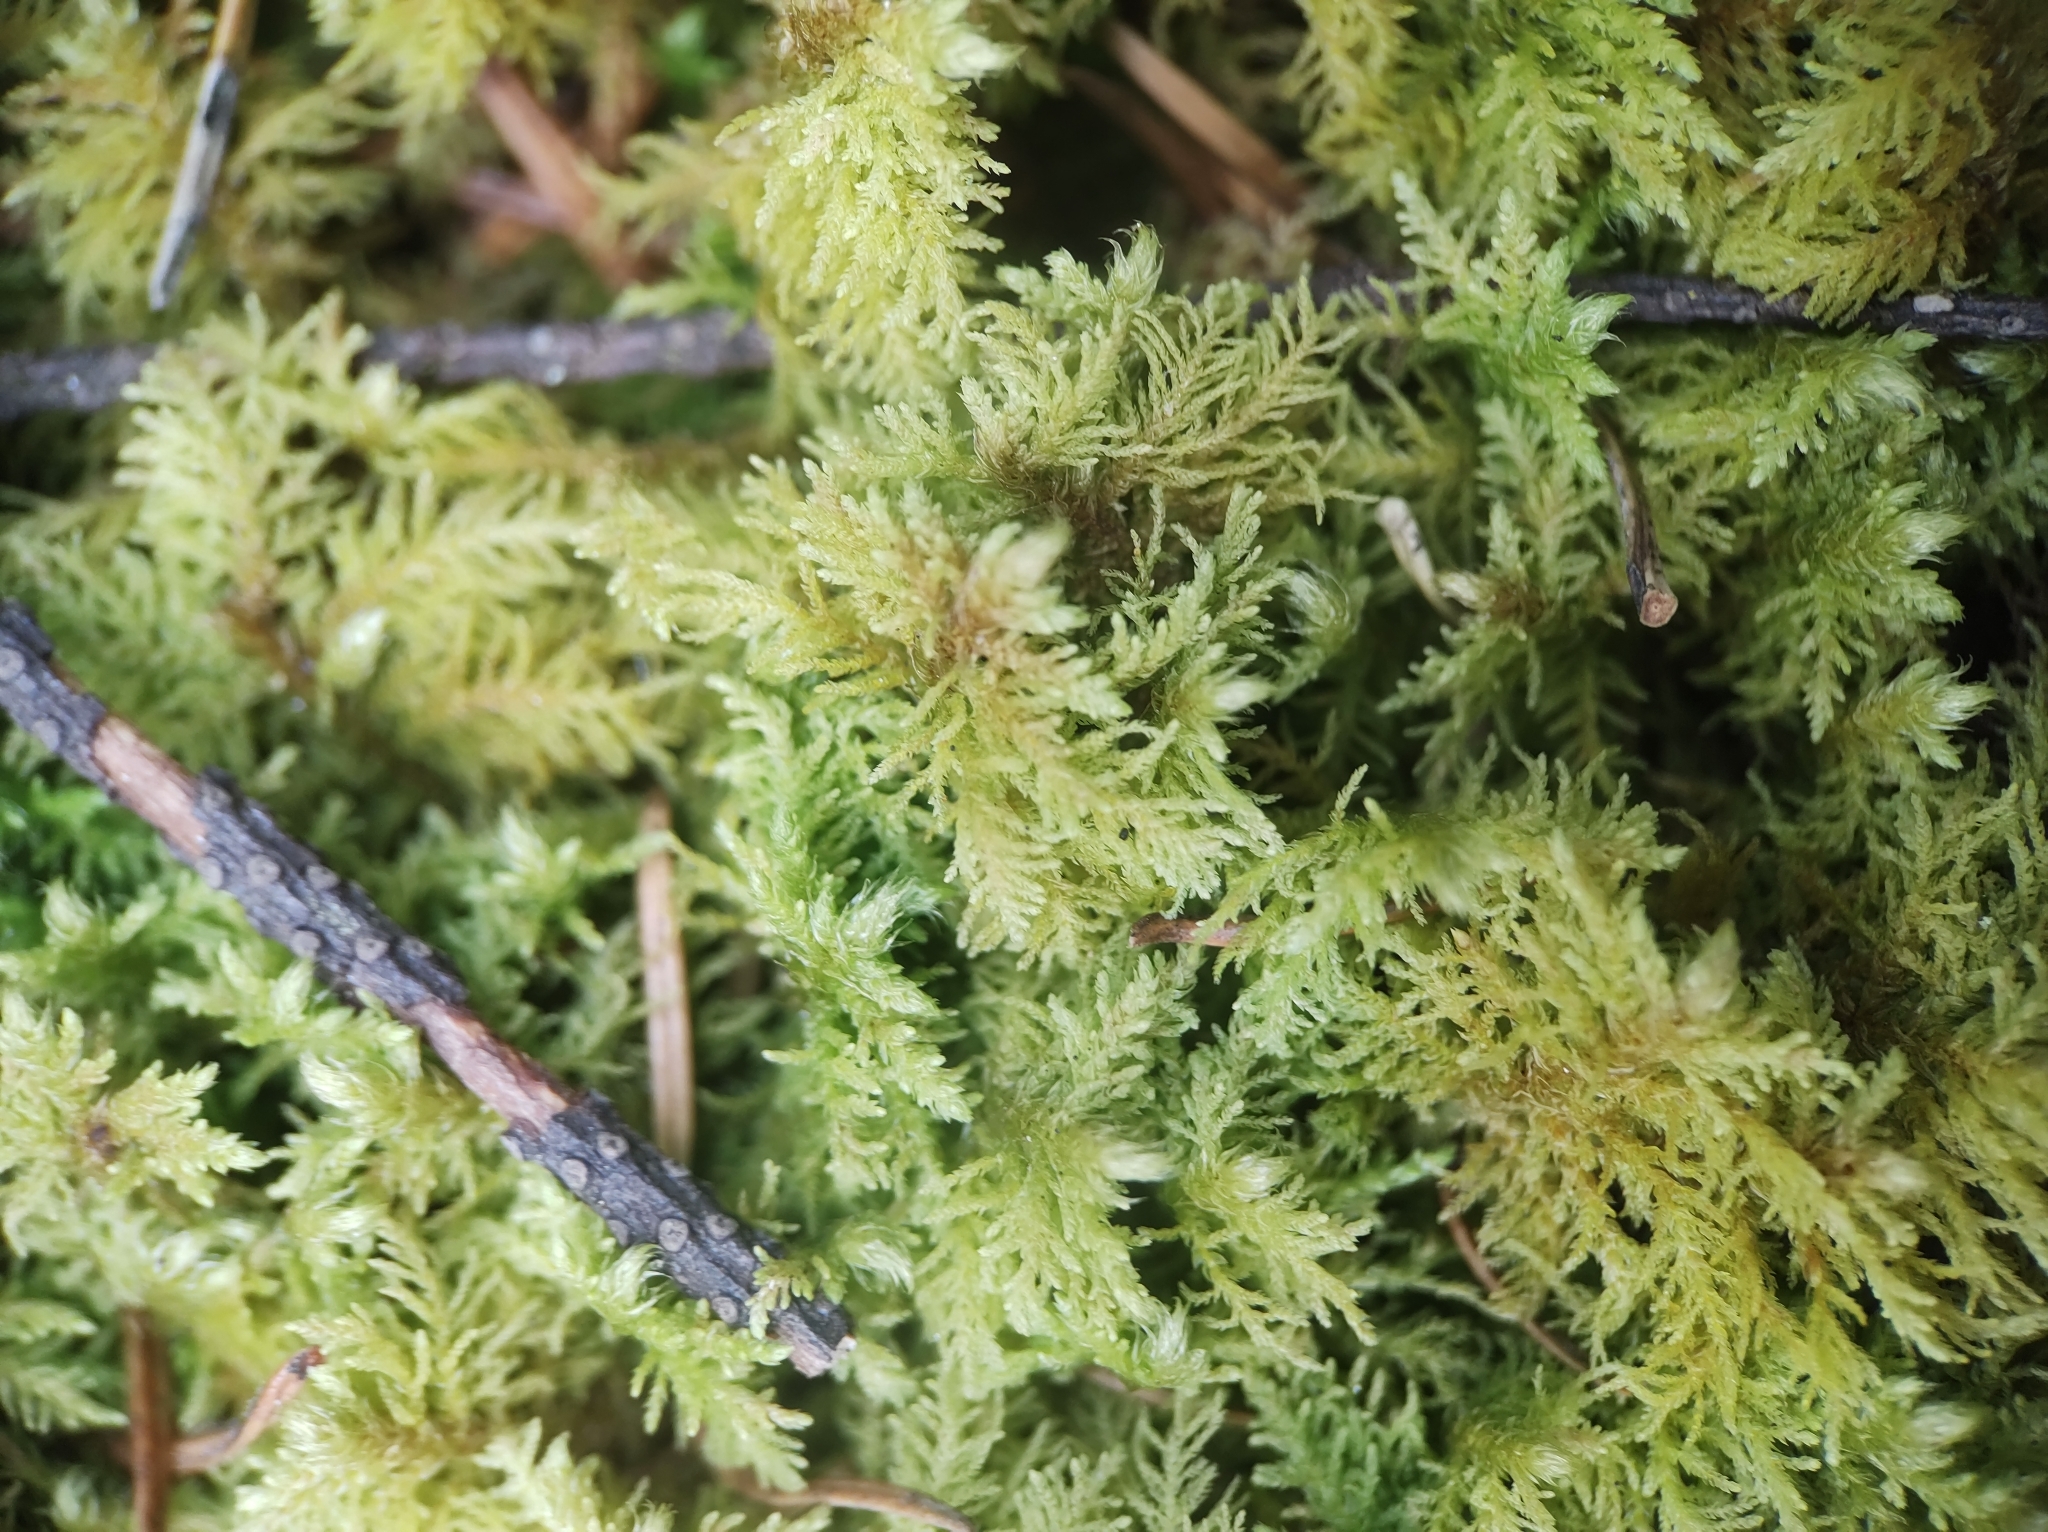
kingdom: Plantae
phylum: Bryophyta
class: Bryopsida
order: Hypnales
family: Hylocomiaceae
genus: Hylocomium
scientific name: Hylocomium splendens
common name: Stairstep moss
